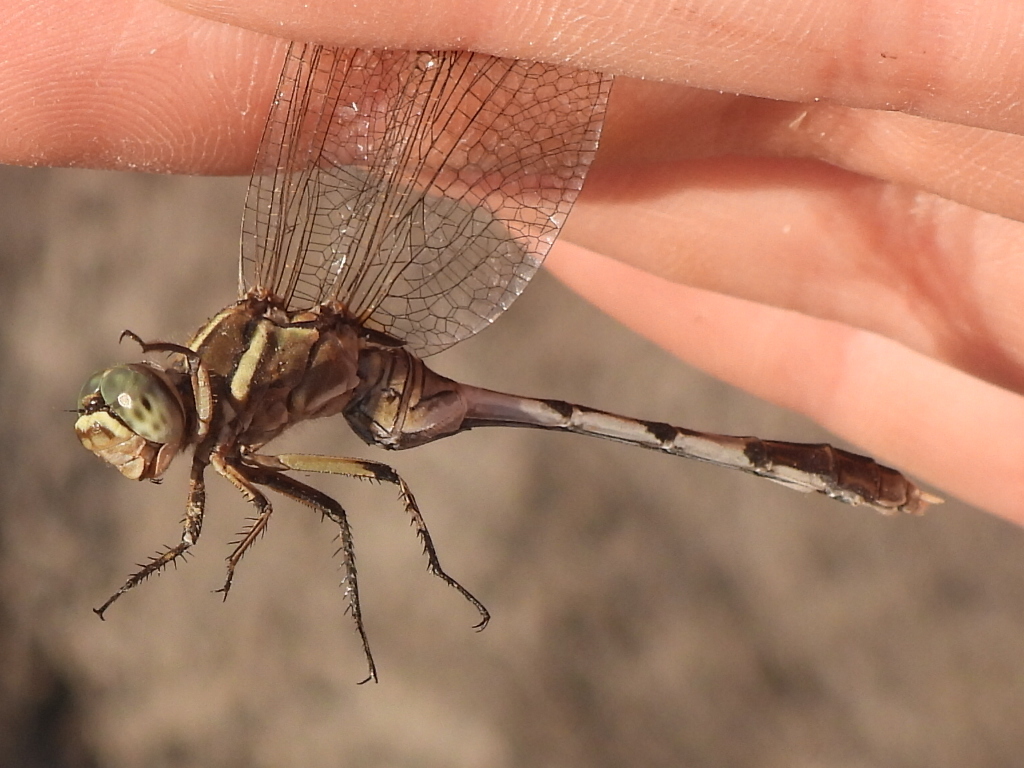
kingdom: Animalia
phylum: Arthropoda
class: Insecta
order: Odonata
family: Libellulidae
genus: Orthetrum
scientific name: Orthetrum sabina
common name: Slender skimmer
